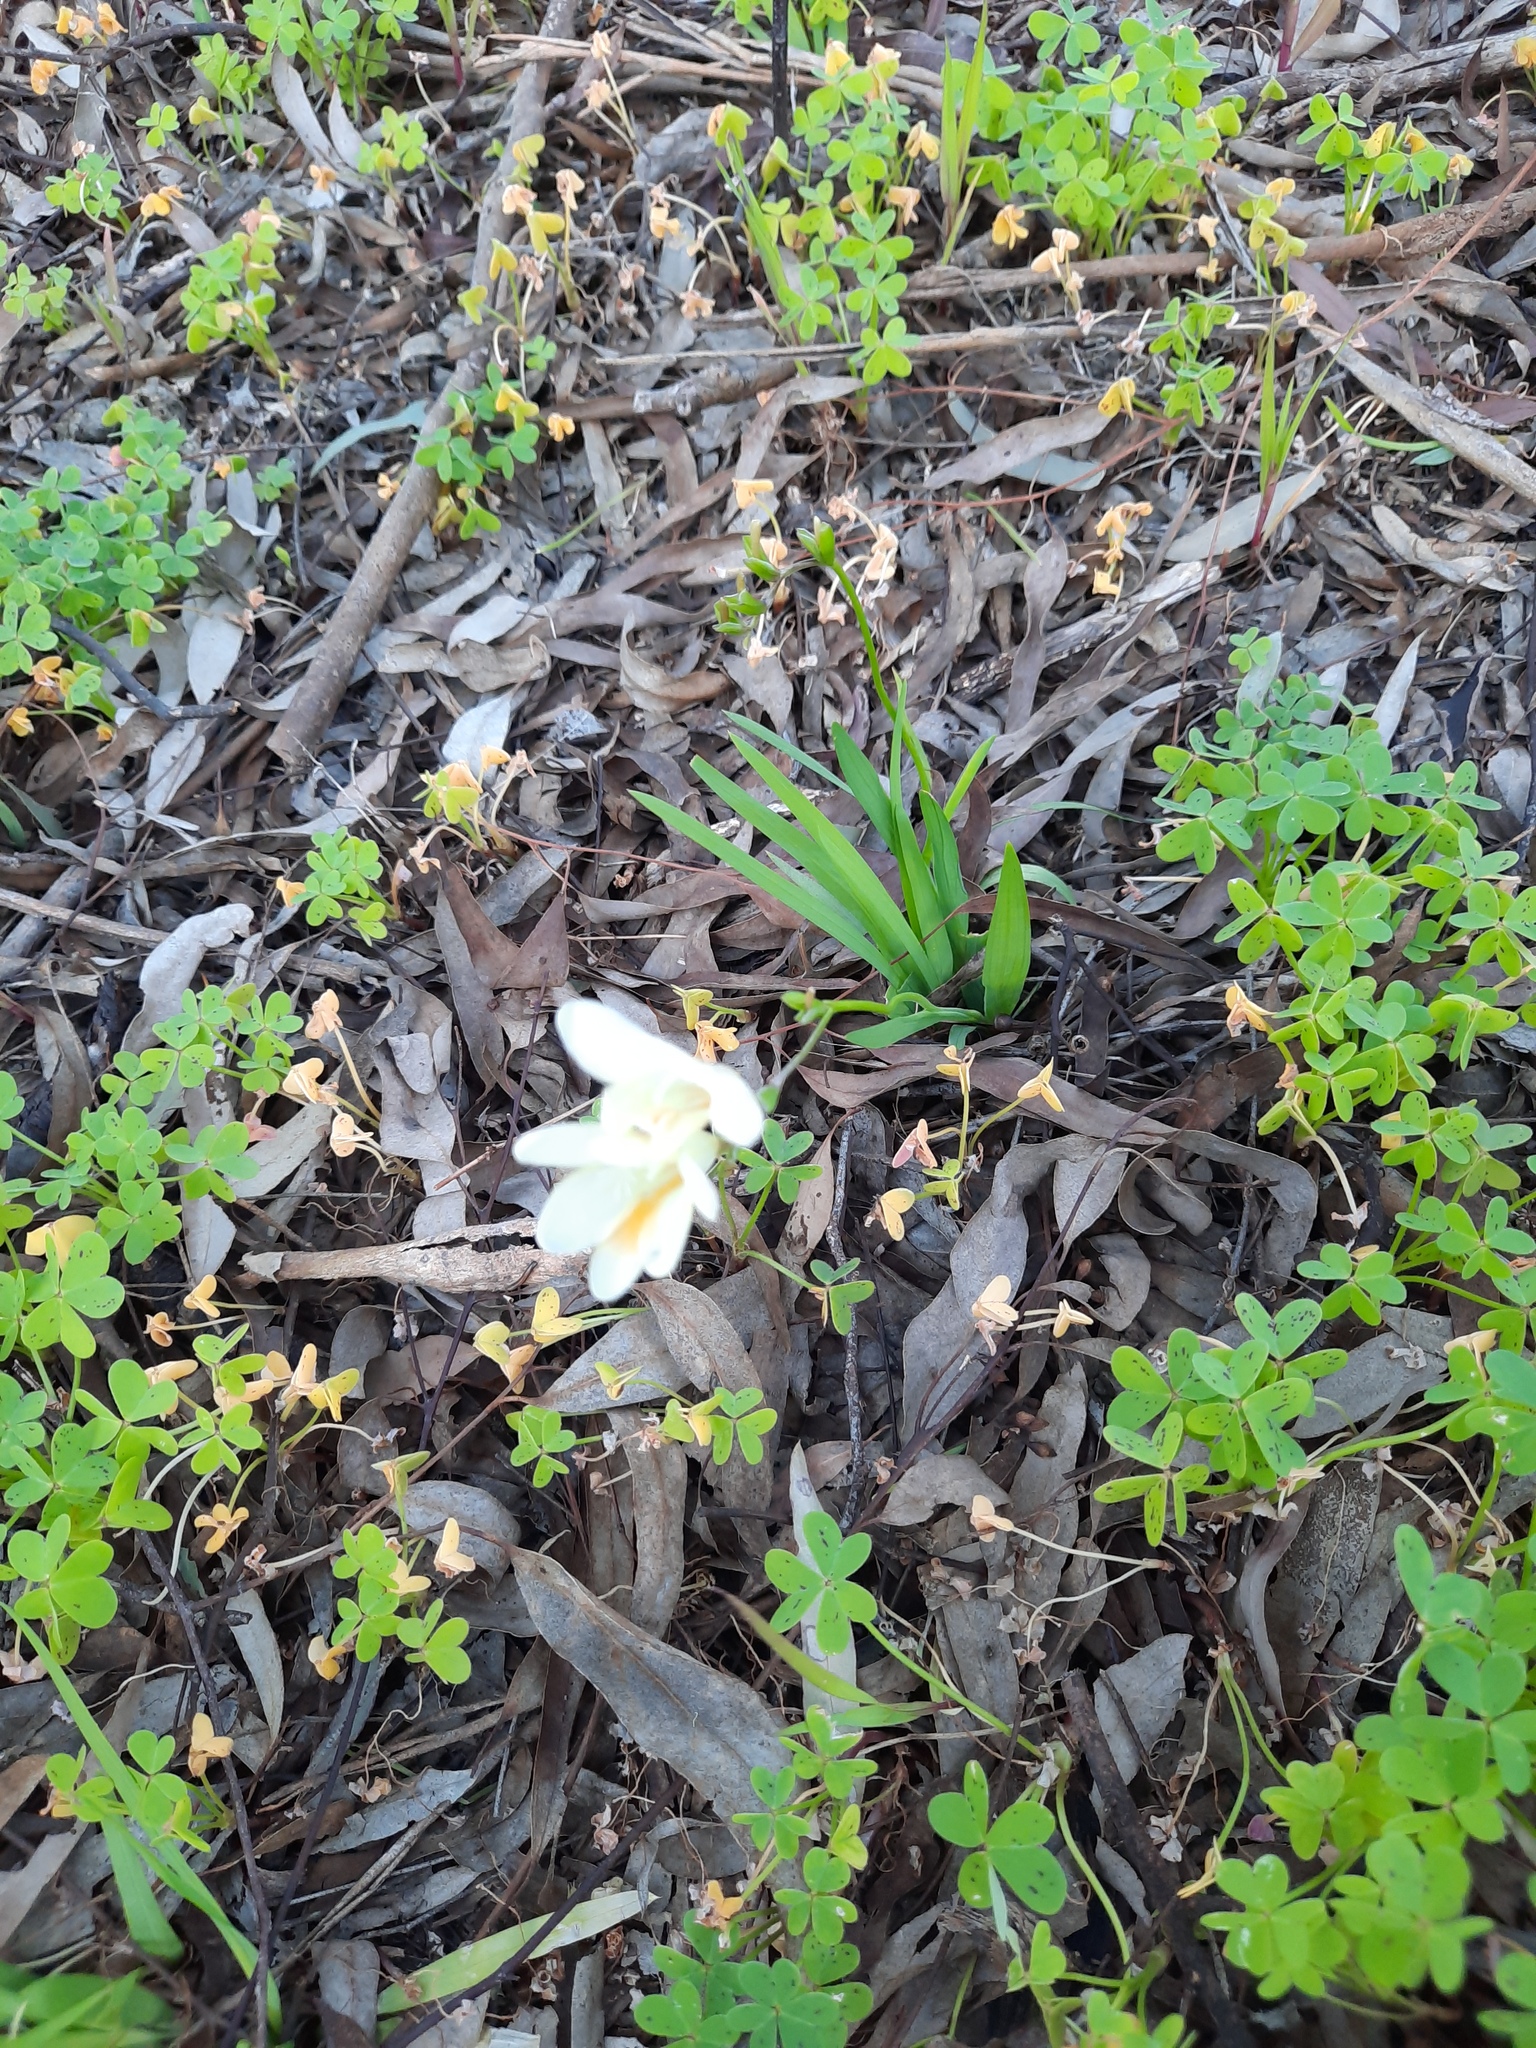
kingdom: Plantae
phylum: Tracheophyta
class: Liliopsida
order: Asparagales
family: Iridaceae
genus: Freesia
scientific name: Freesia leichtlinii
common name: Freesia
